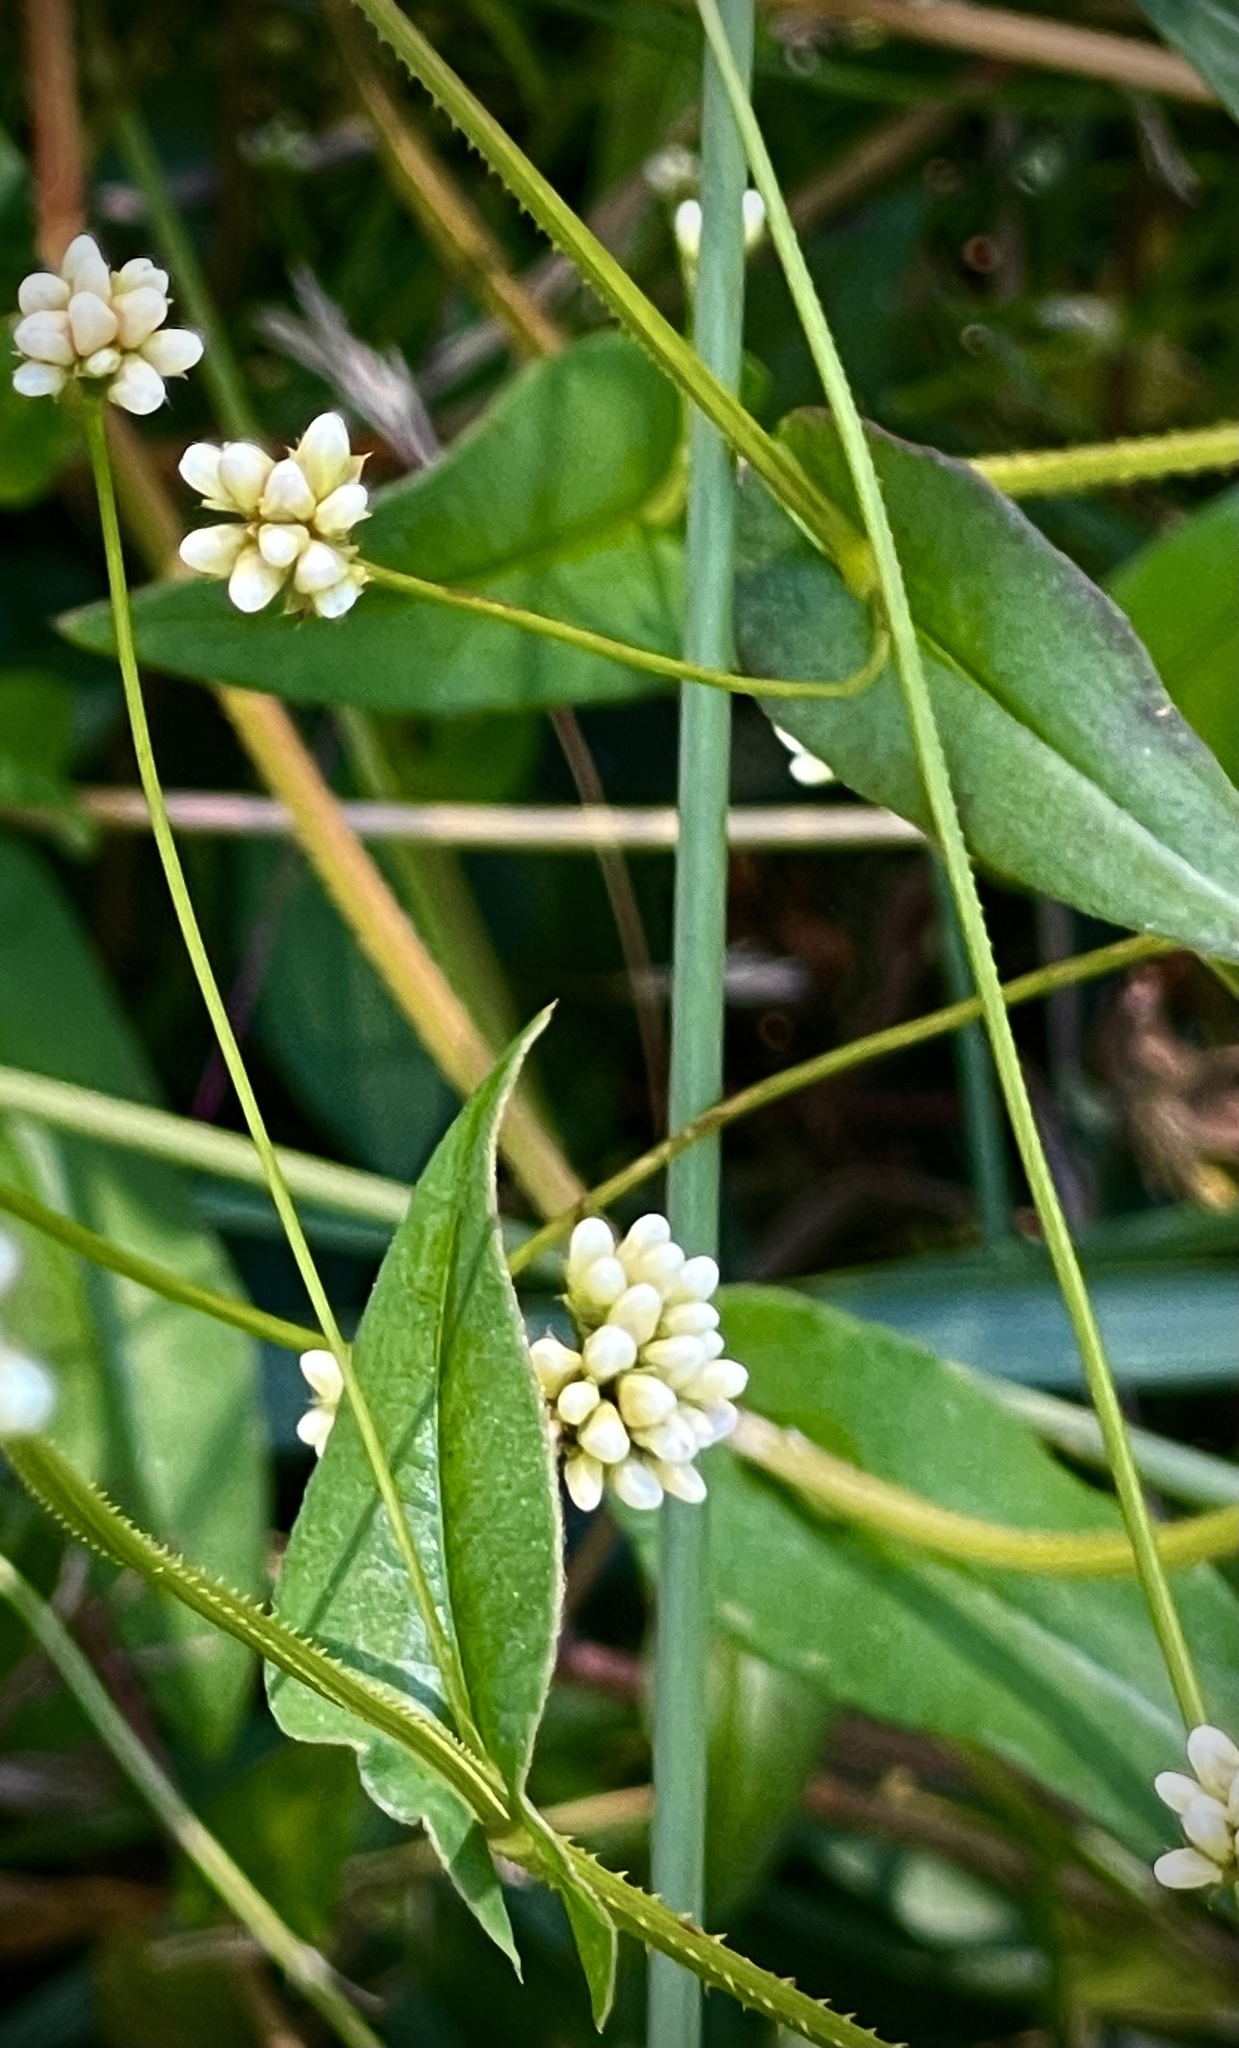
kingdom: Plantae
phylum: Tracheophyta
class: Magnoliopsida
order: Caryophyllales
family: Polygonaceae
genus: Persicaria
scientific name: Persicaria sagittata
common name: American tearthumb
